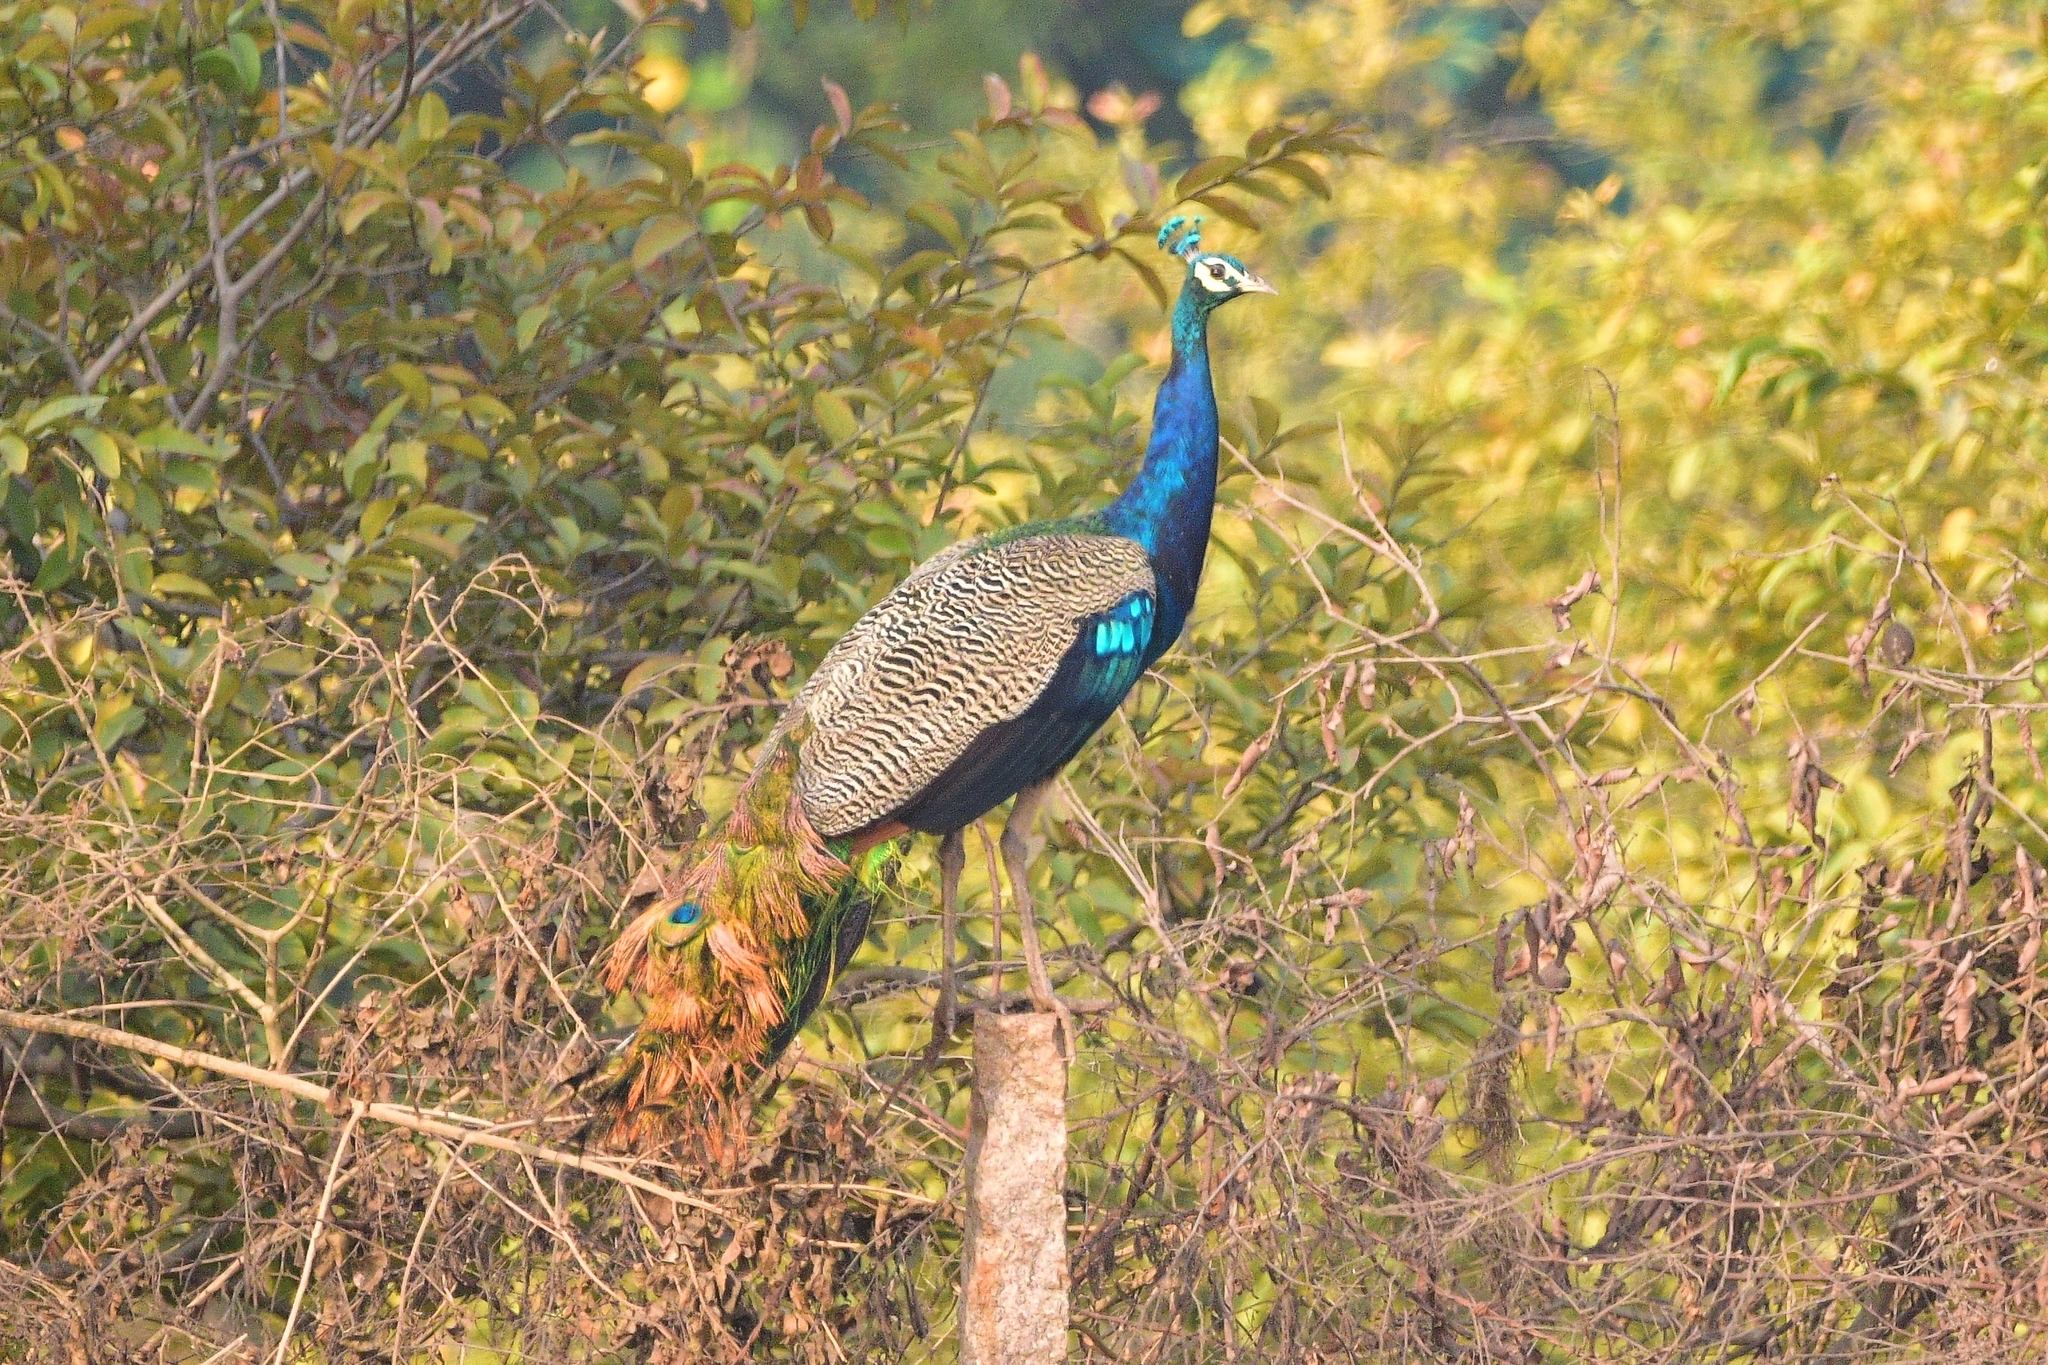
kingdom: Animalia
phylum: Chordata
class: Aves
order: Galliformes
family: Phasianidae
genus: Pavo
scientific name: Pavo cristatus
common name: Indian peafowl
